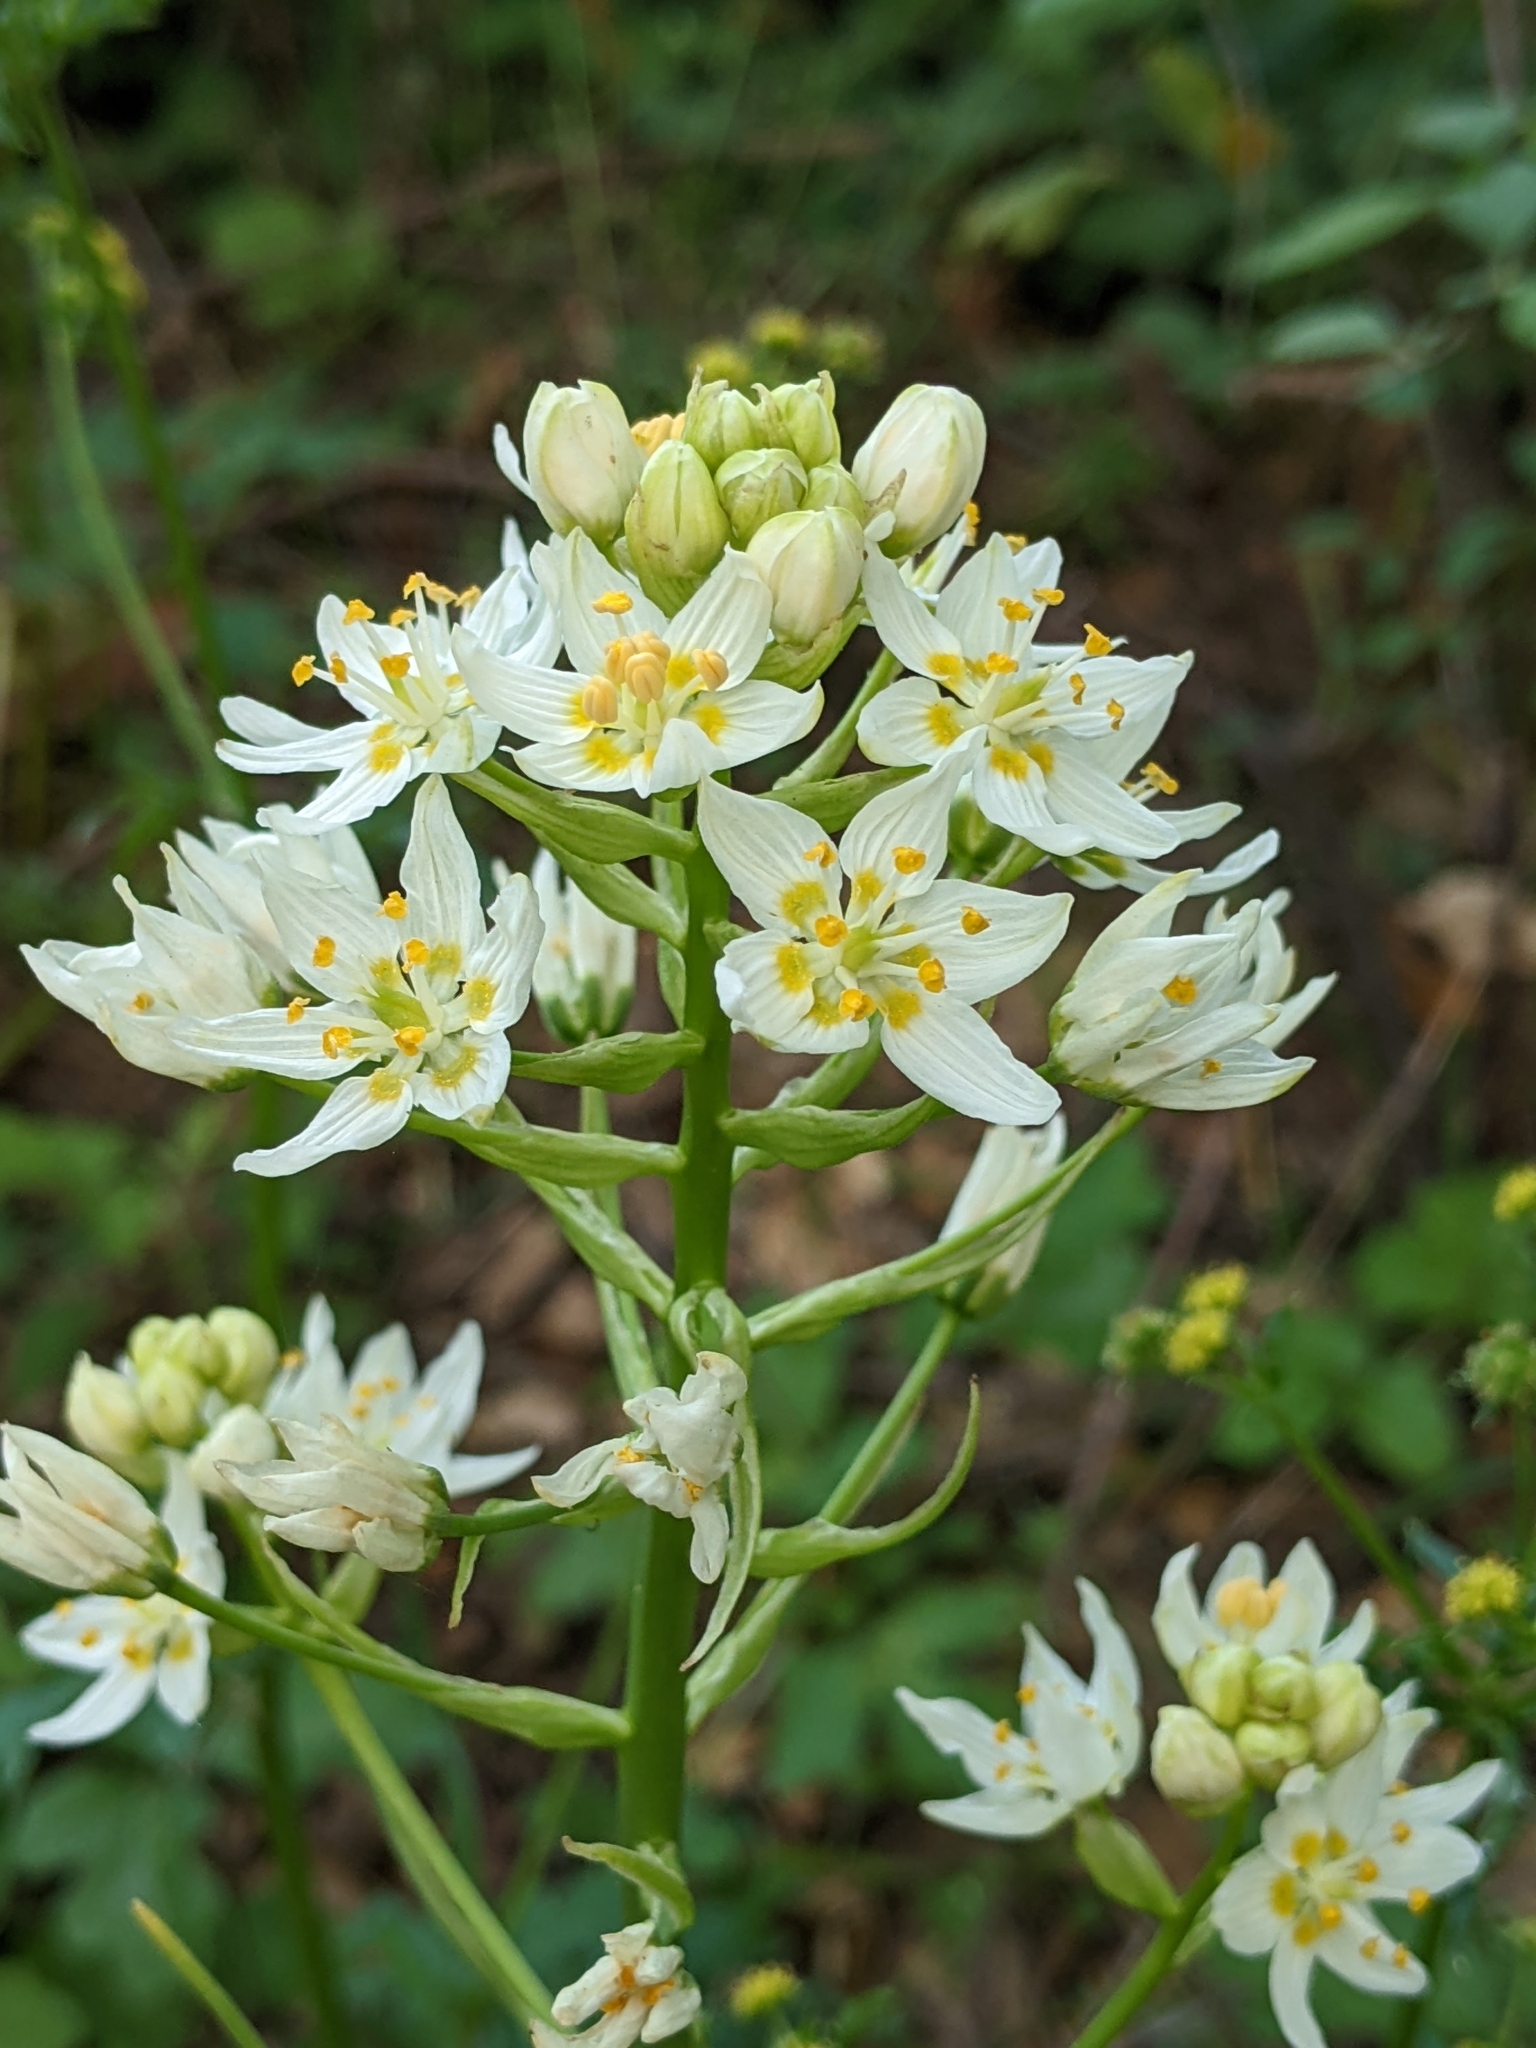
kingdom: Plantae
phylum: Tracheophyta
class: Liliopsida
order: Liliales
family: Melanthiaceae
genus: Toxicoscordion
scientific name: Toxicoscordion fremontii
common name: Fremont's death camas
